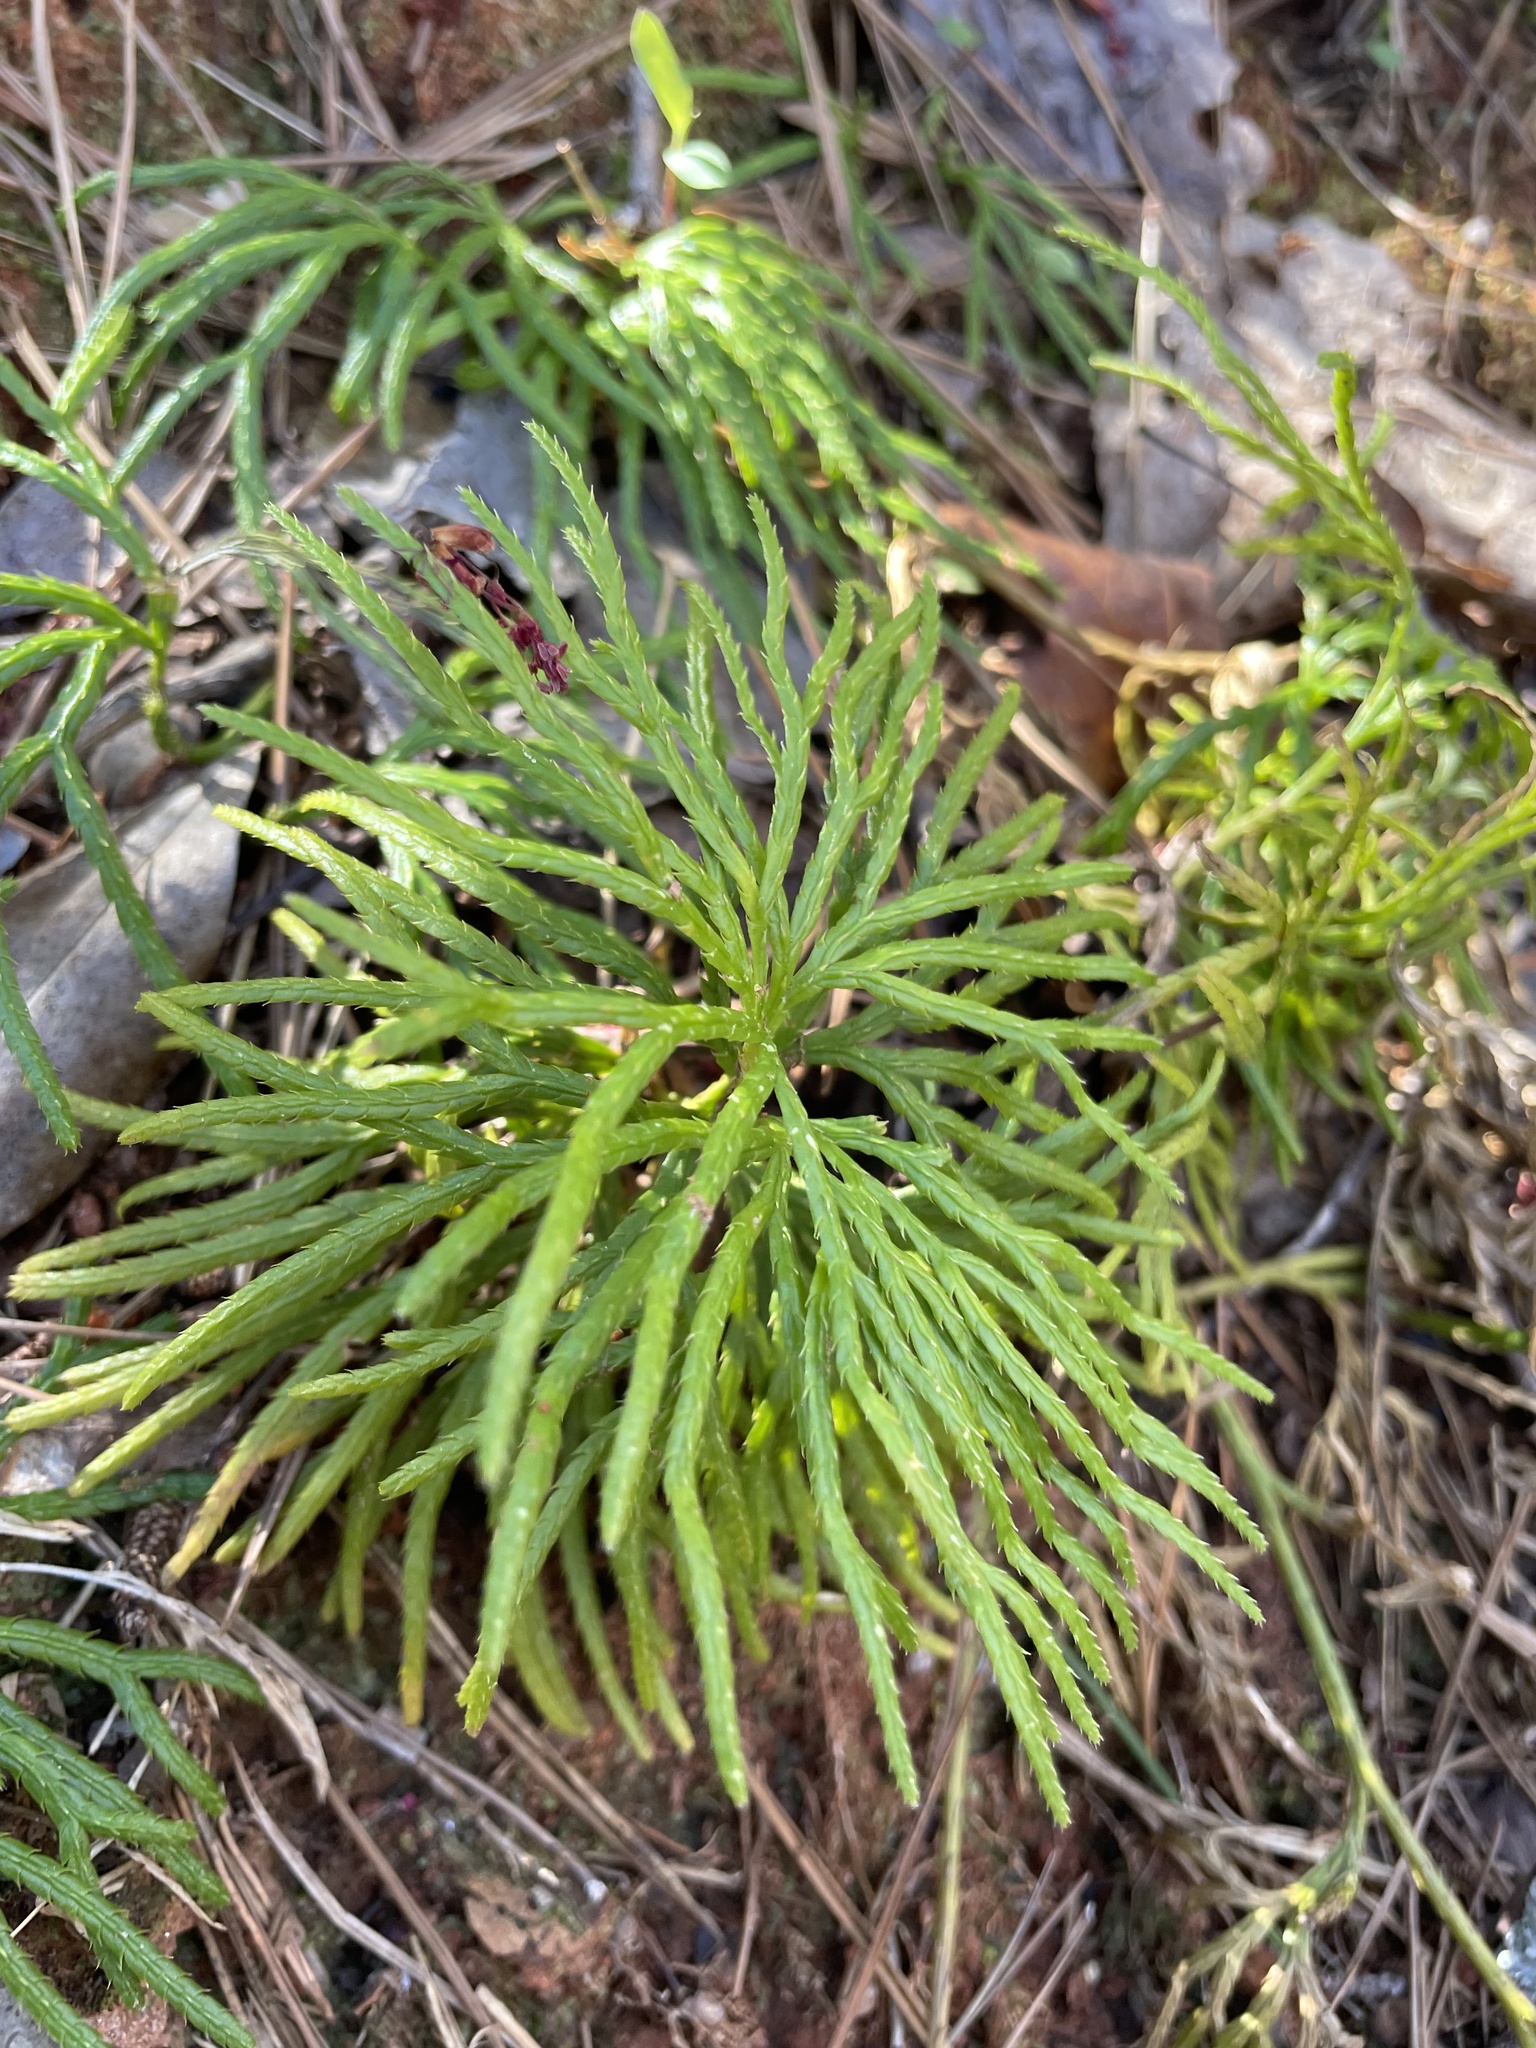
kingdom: Plantae
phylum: Tracheophyta
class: Lycopodiopsida
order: Lycopodiales
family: Lycopodiaceae
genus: Diphasiastrum
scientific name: Diphasiastrum digitatum
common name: Southern running-pine
